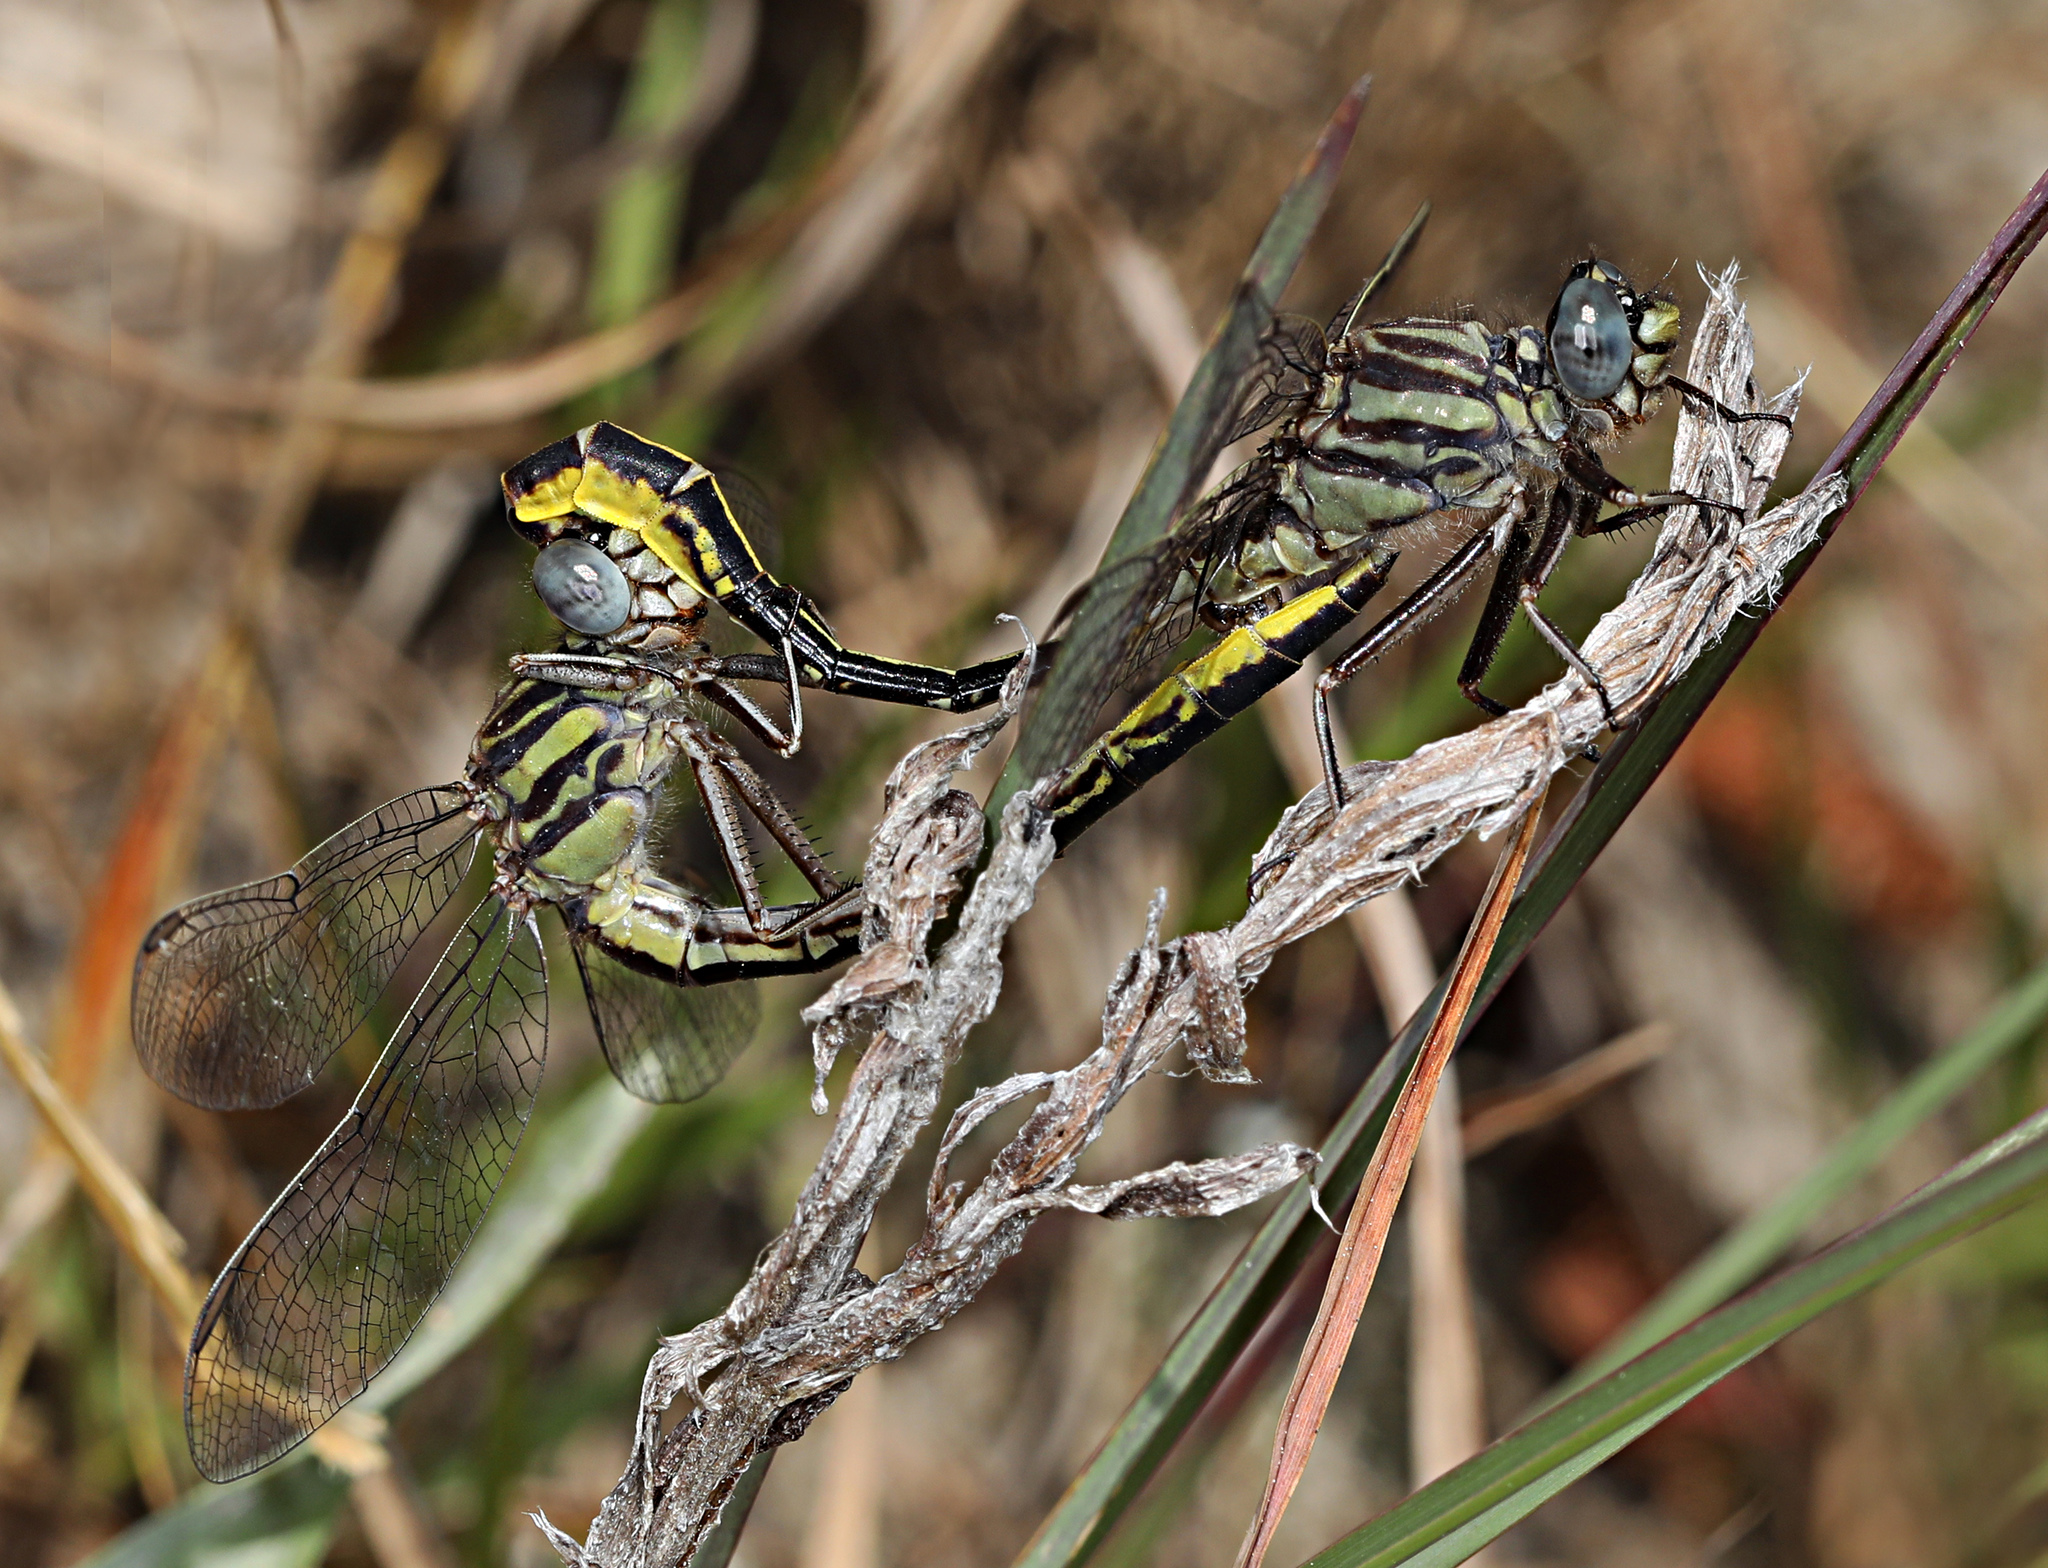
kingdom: Animalia
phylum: Arthropoda
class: Insecta
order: Odonata
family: Gomphidae
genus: Phanogomphus
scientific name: Phanogomphus cavillaris
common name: Sandhill clubtail
